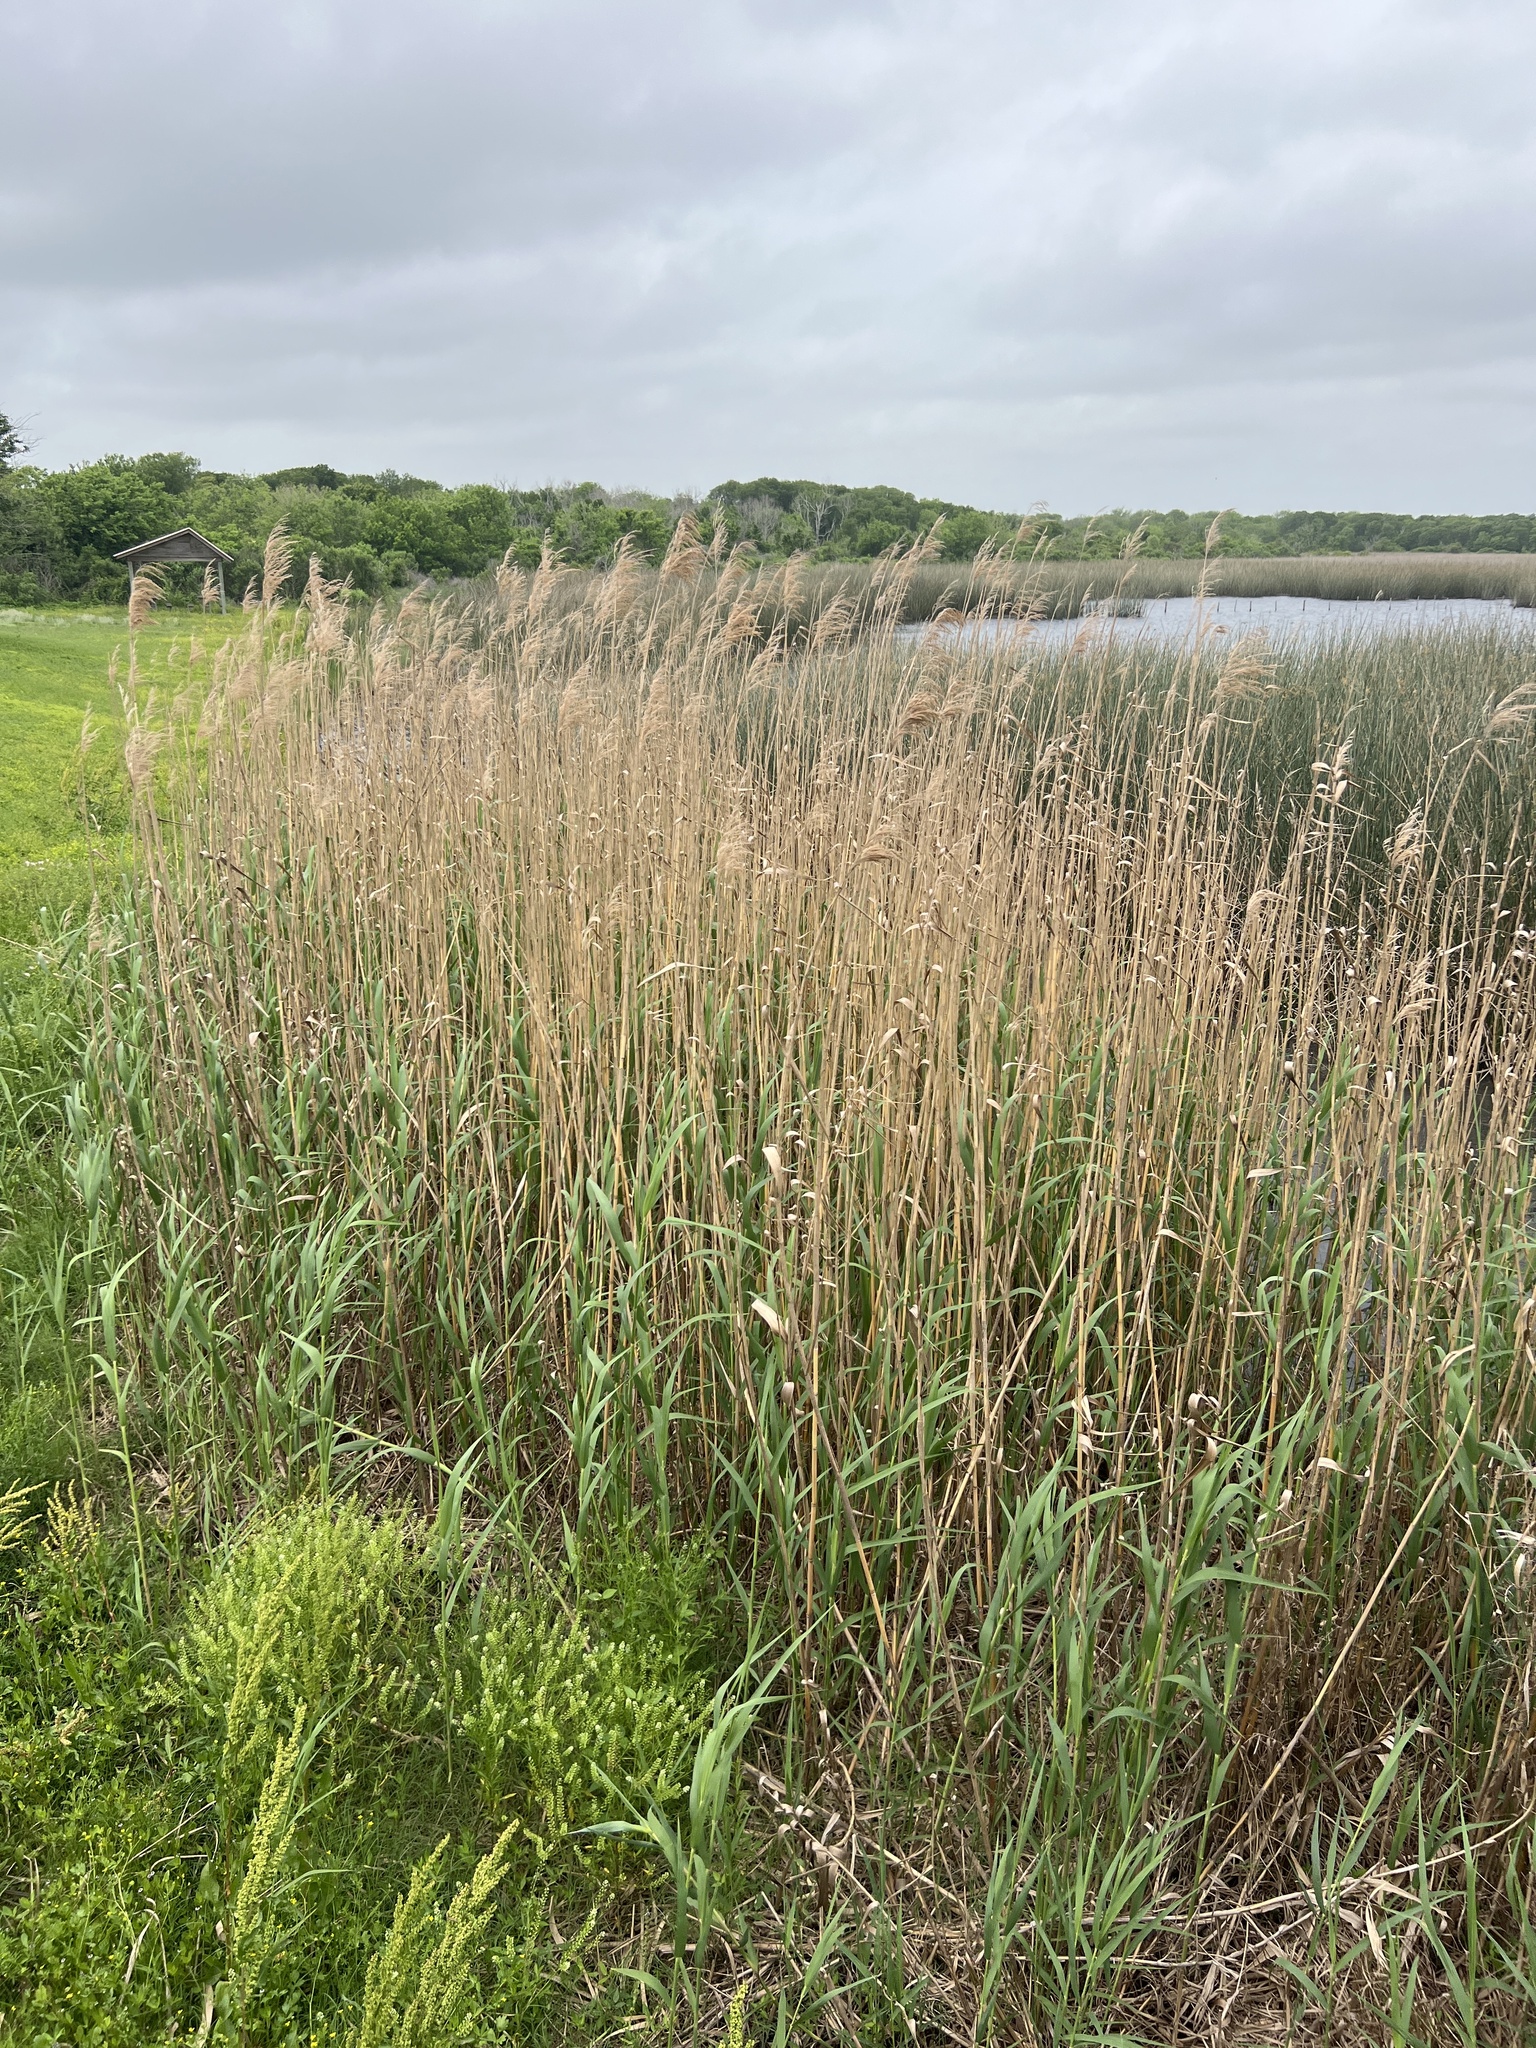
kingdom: Plantae
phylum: Tracheophyta
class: Liliopsida
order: Poales
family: Poaceae
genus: Phragmites
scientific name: Phragmites australis
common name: Common reed
